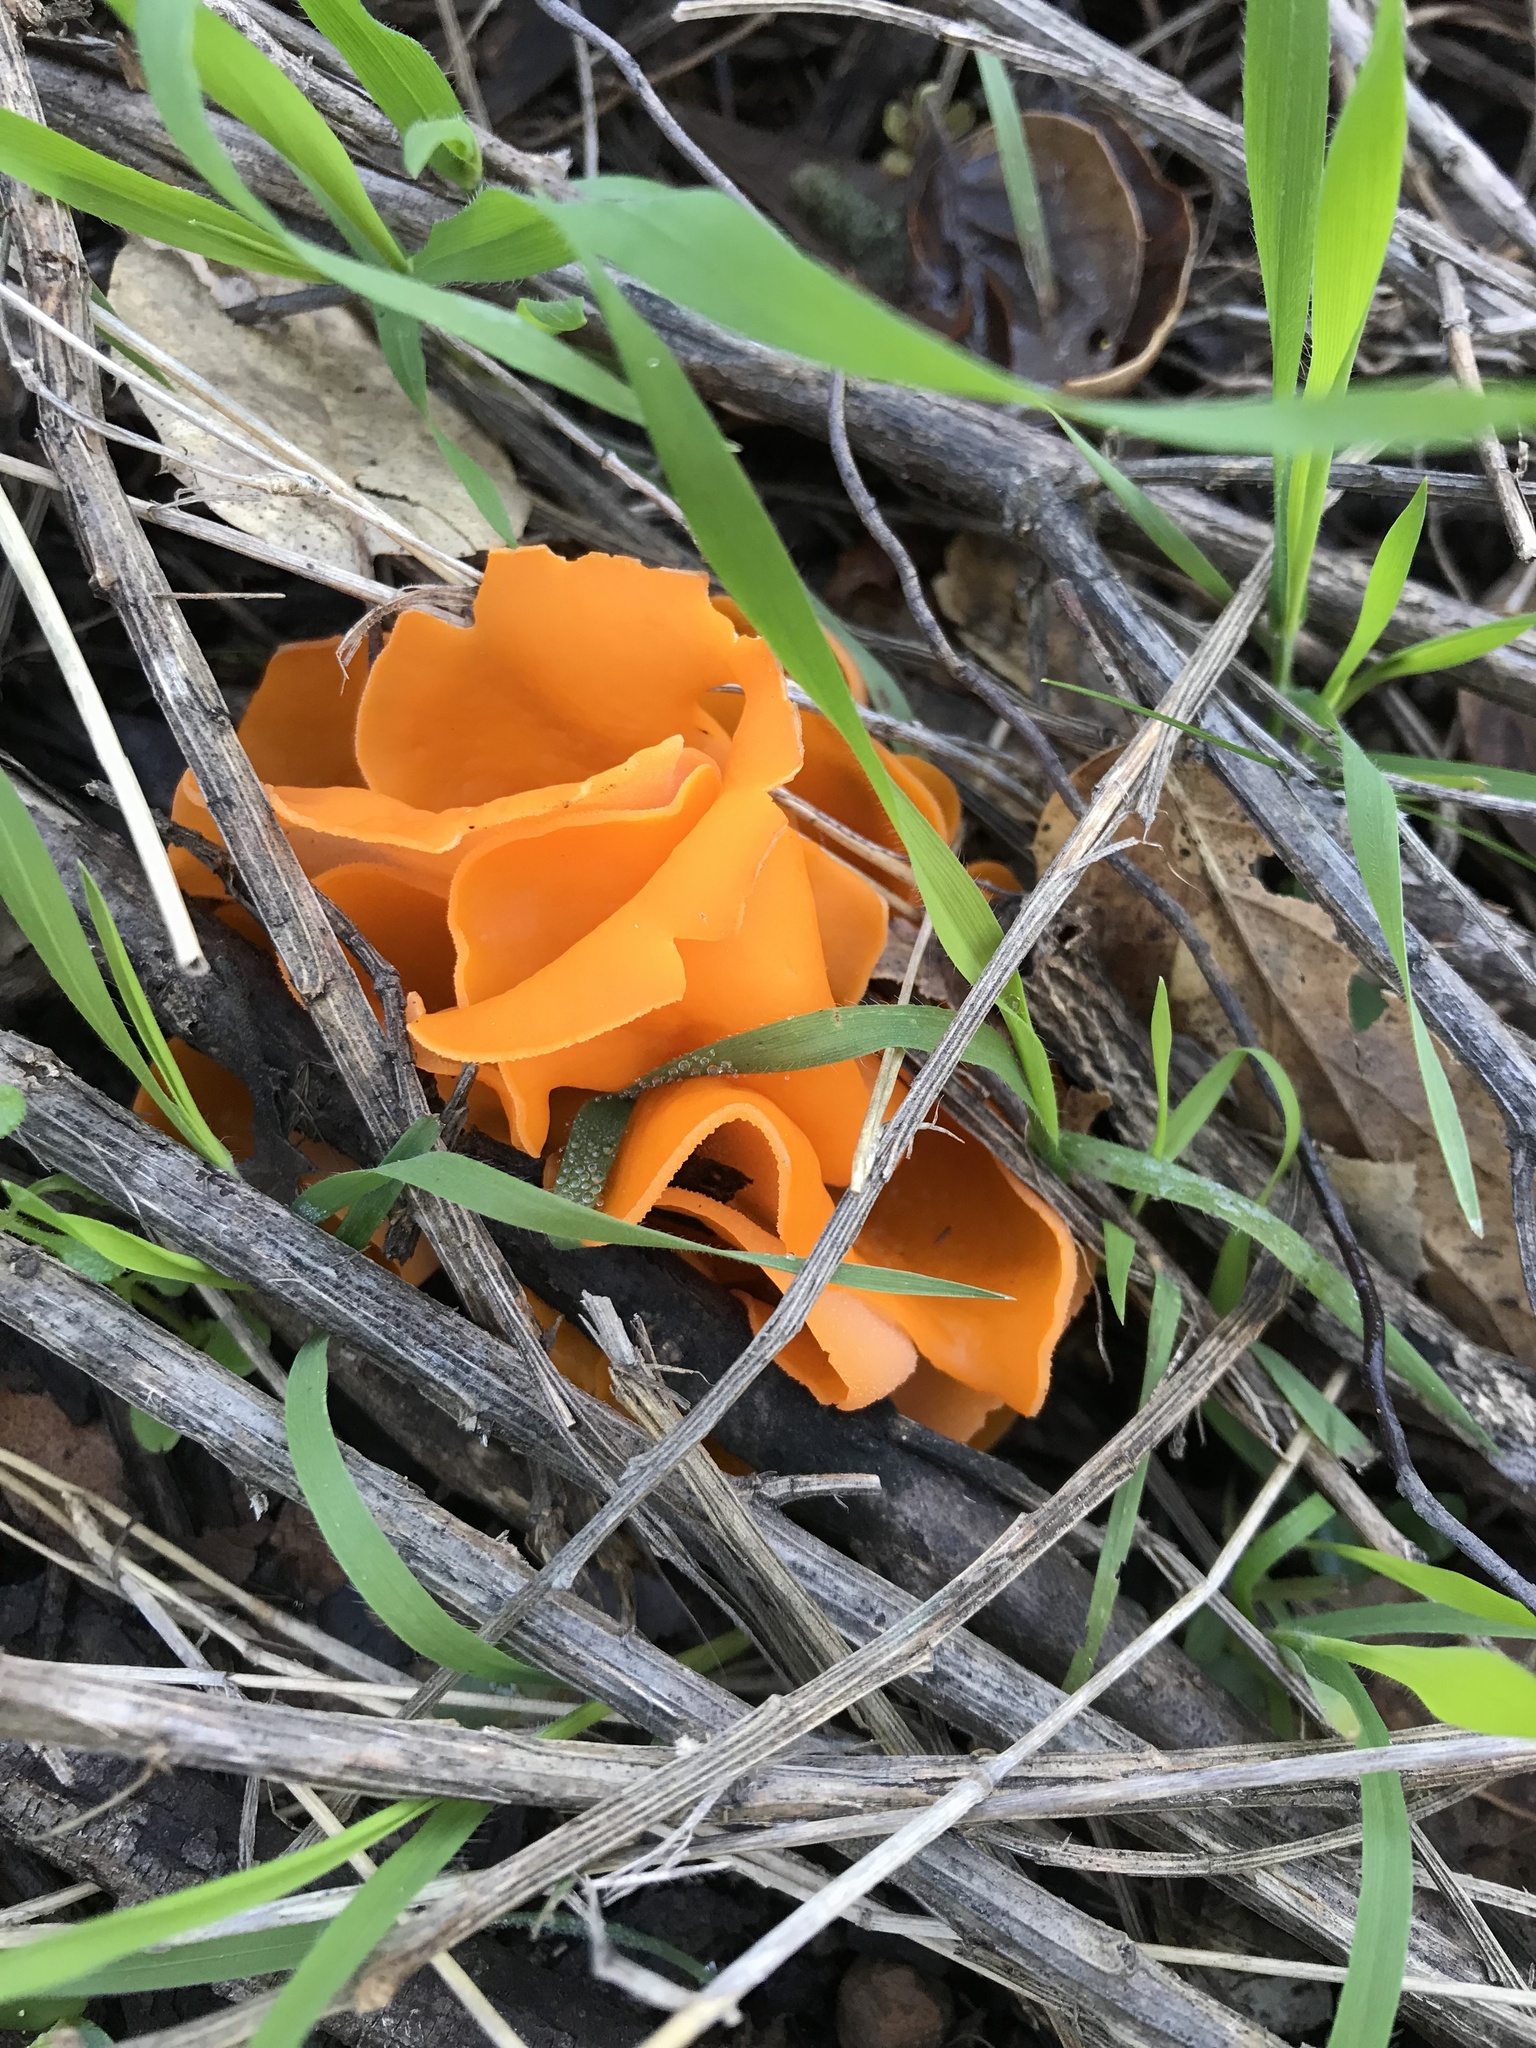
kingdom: Fungi
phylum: Ascomycota
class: Pezizomycetes
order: Pezizales
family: Pyronemataceae
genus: Aleuria
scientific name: Aleuria aurantia
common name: Orange peel fungus
